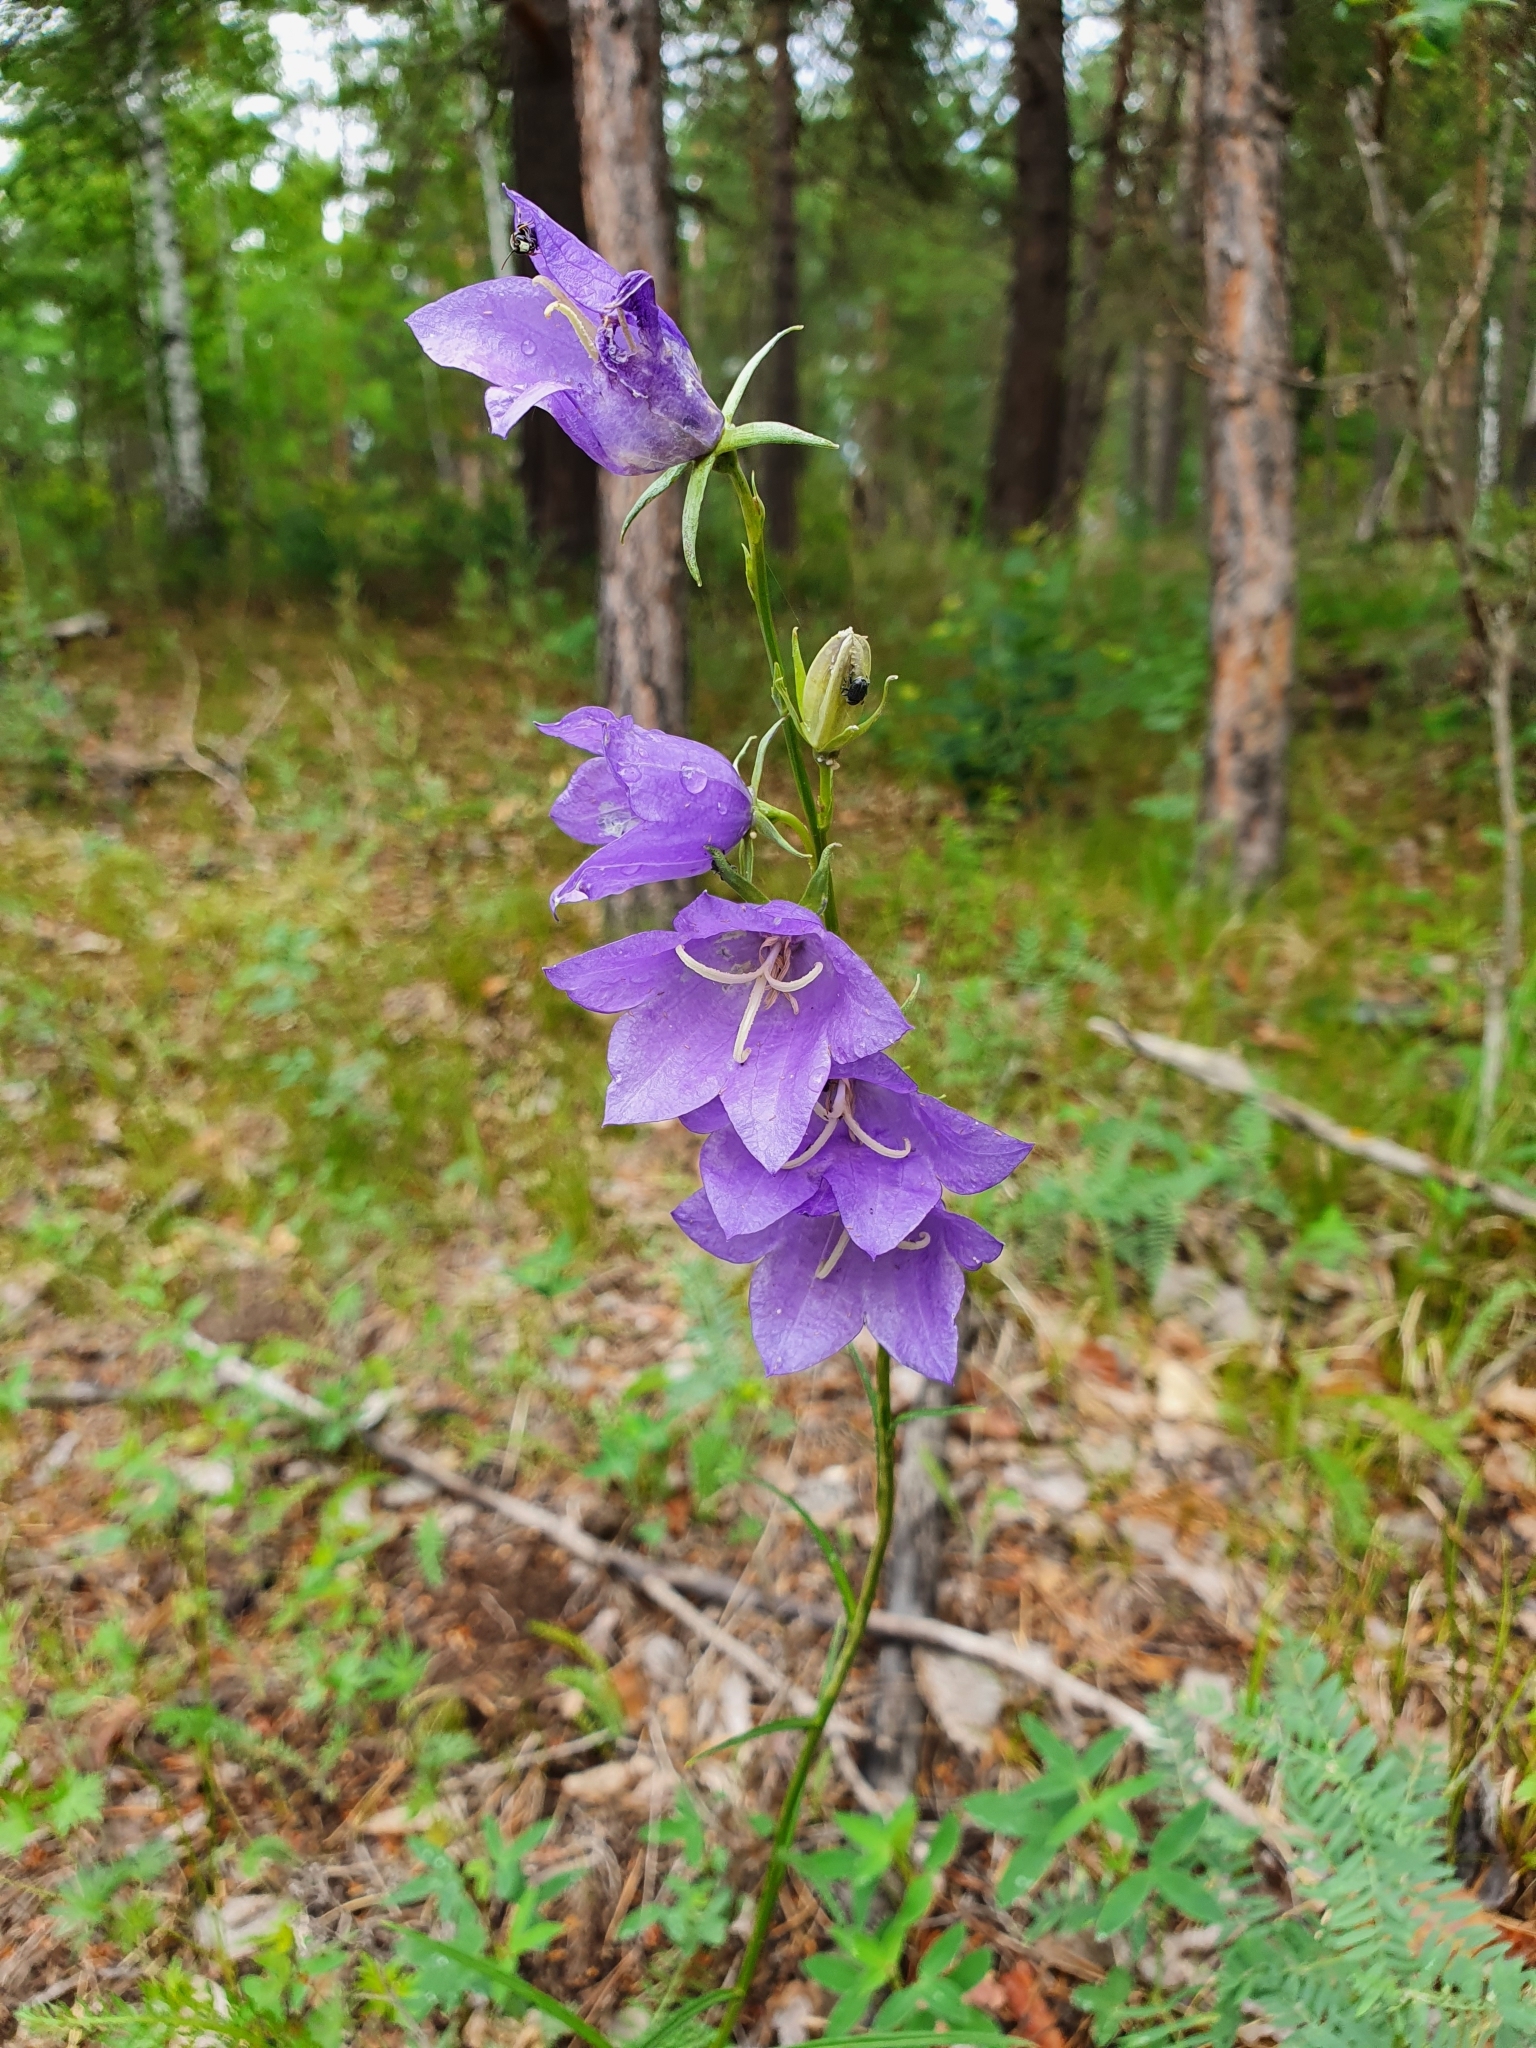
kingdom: Plantae
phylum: Tracheophyta
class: Magnoliopsida
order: Asterales
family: Campanulaceae
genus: Campanula
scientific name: Campanula persicifolia
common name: Peach-leaved bellflower
